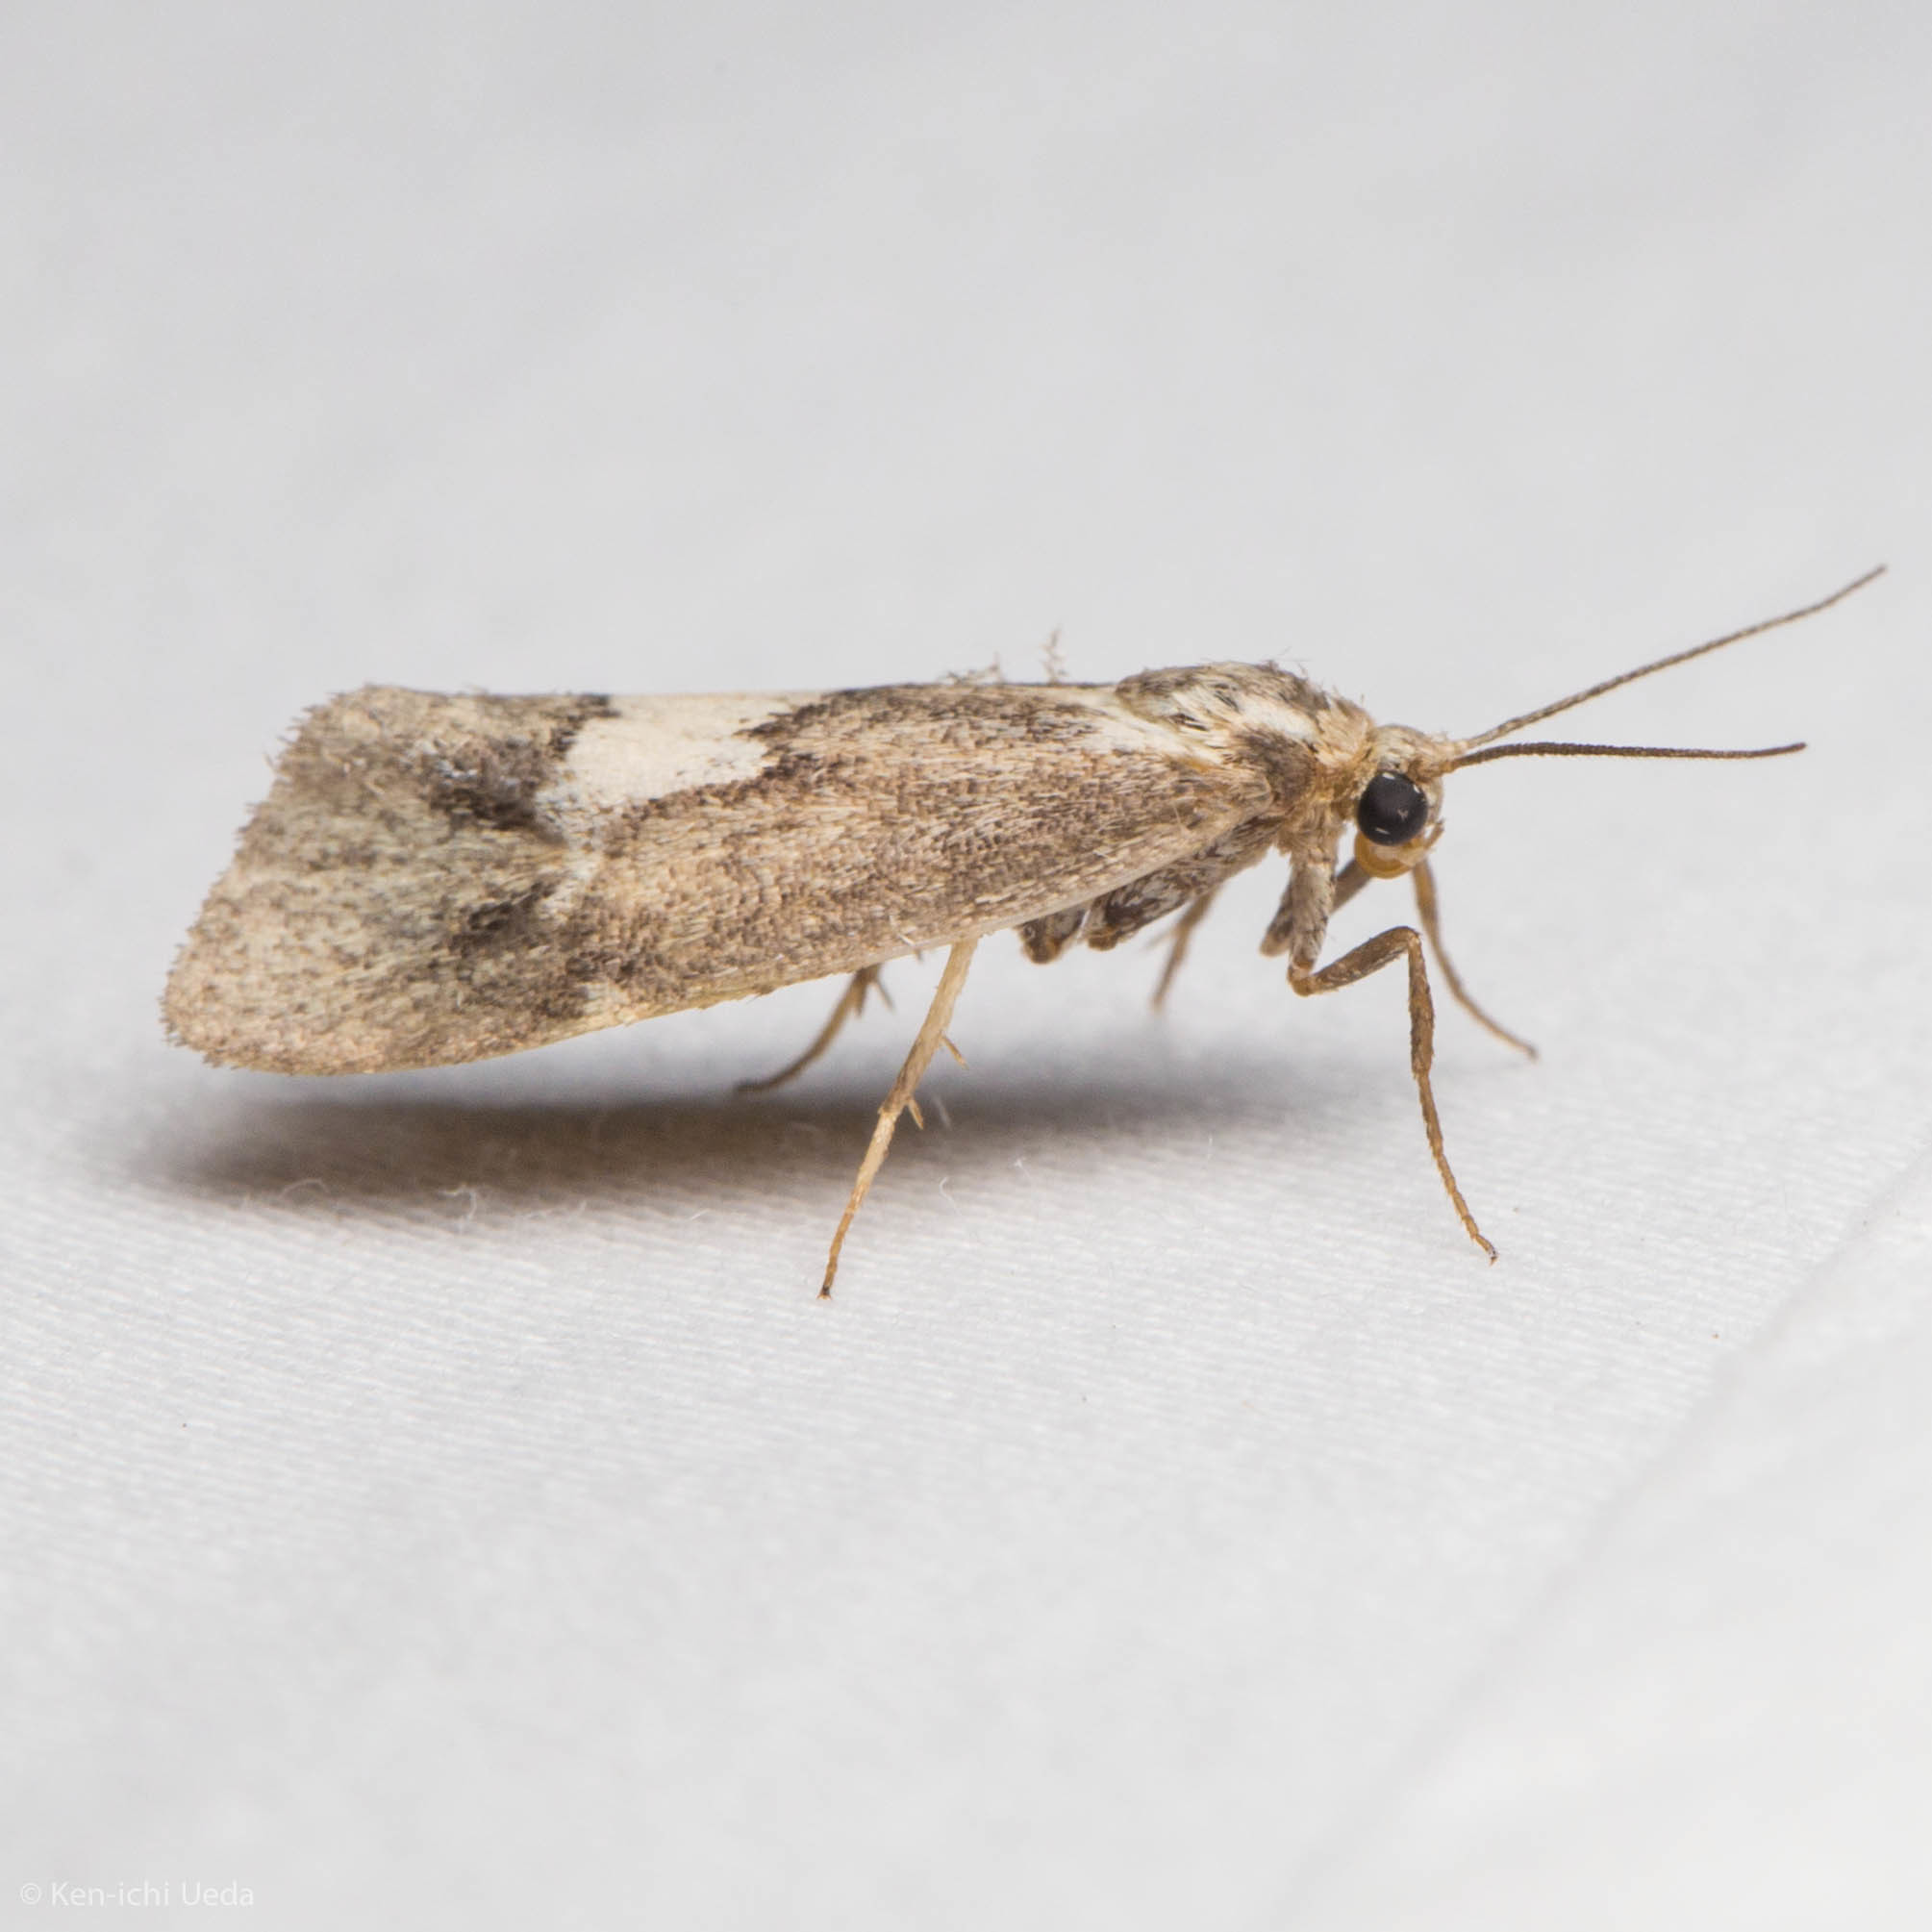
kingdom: Animalia
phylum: Arthropoda
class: Insecta
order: Lepidoptera
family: Erebidae
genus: Cisthene
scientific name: Cisthene deserta
